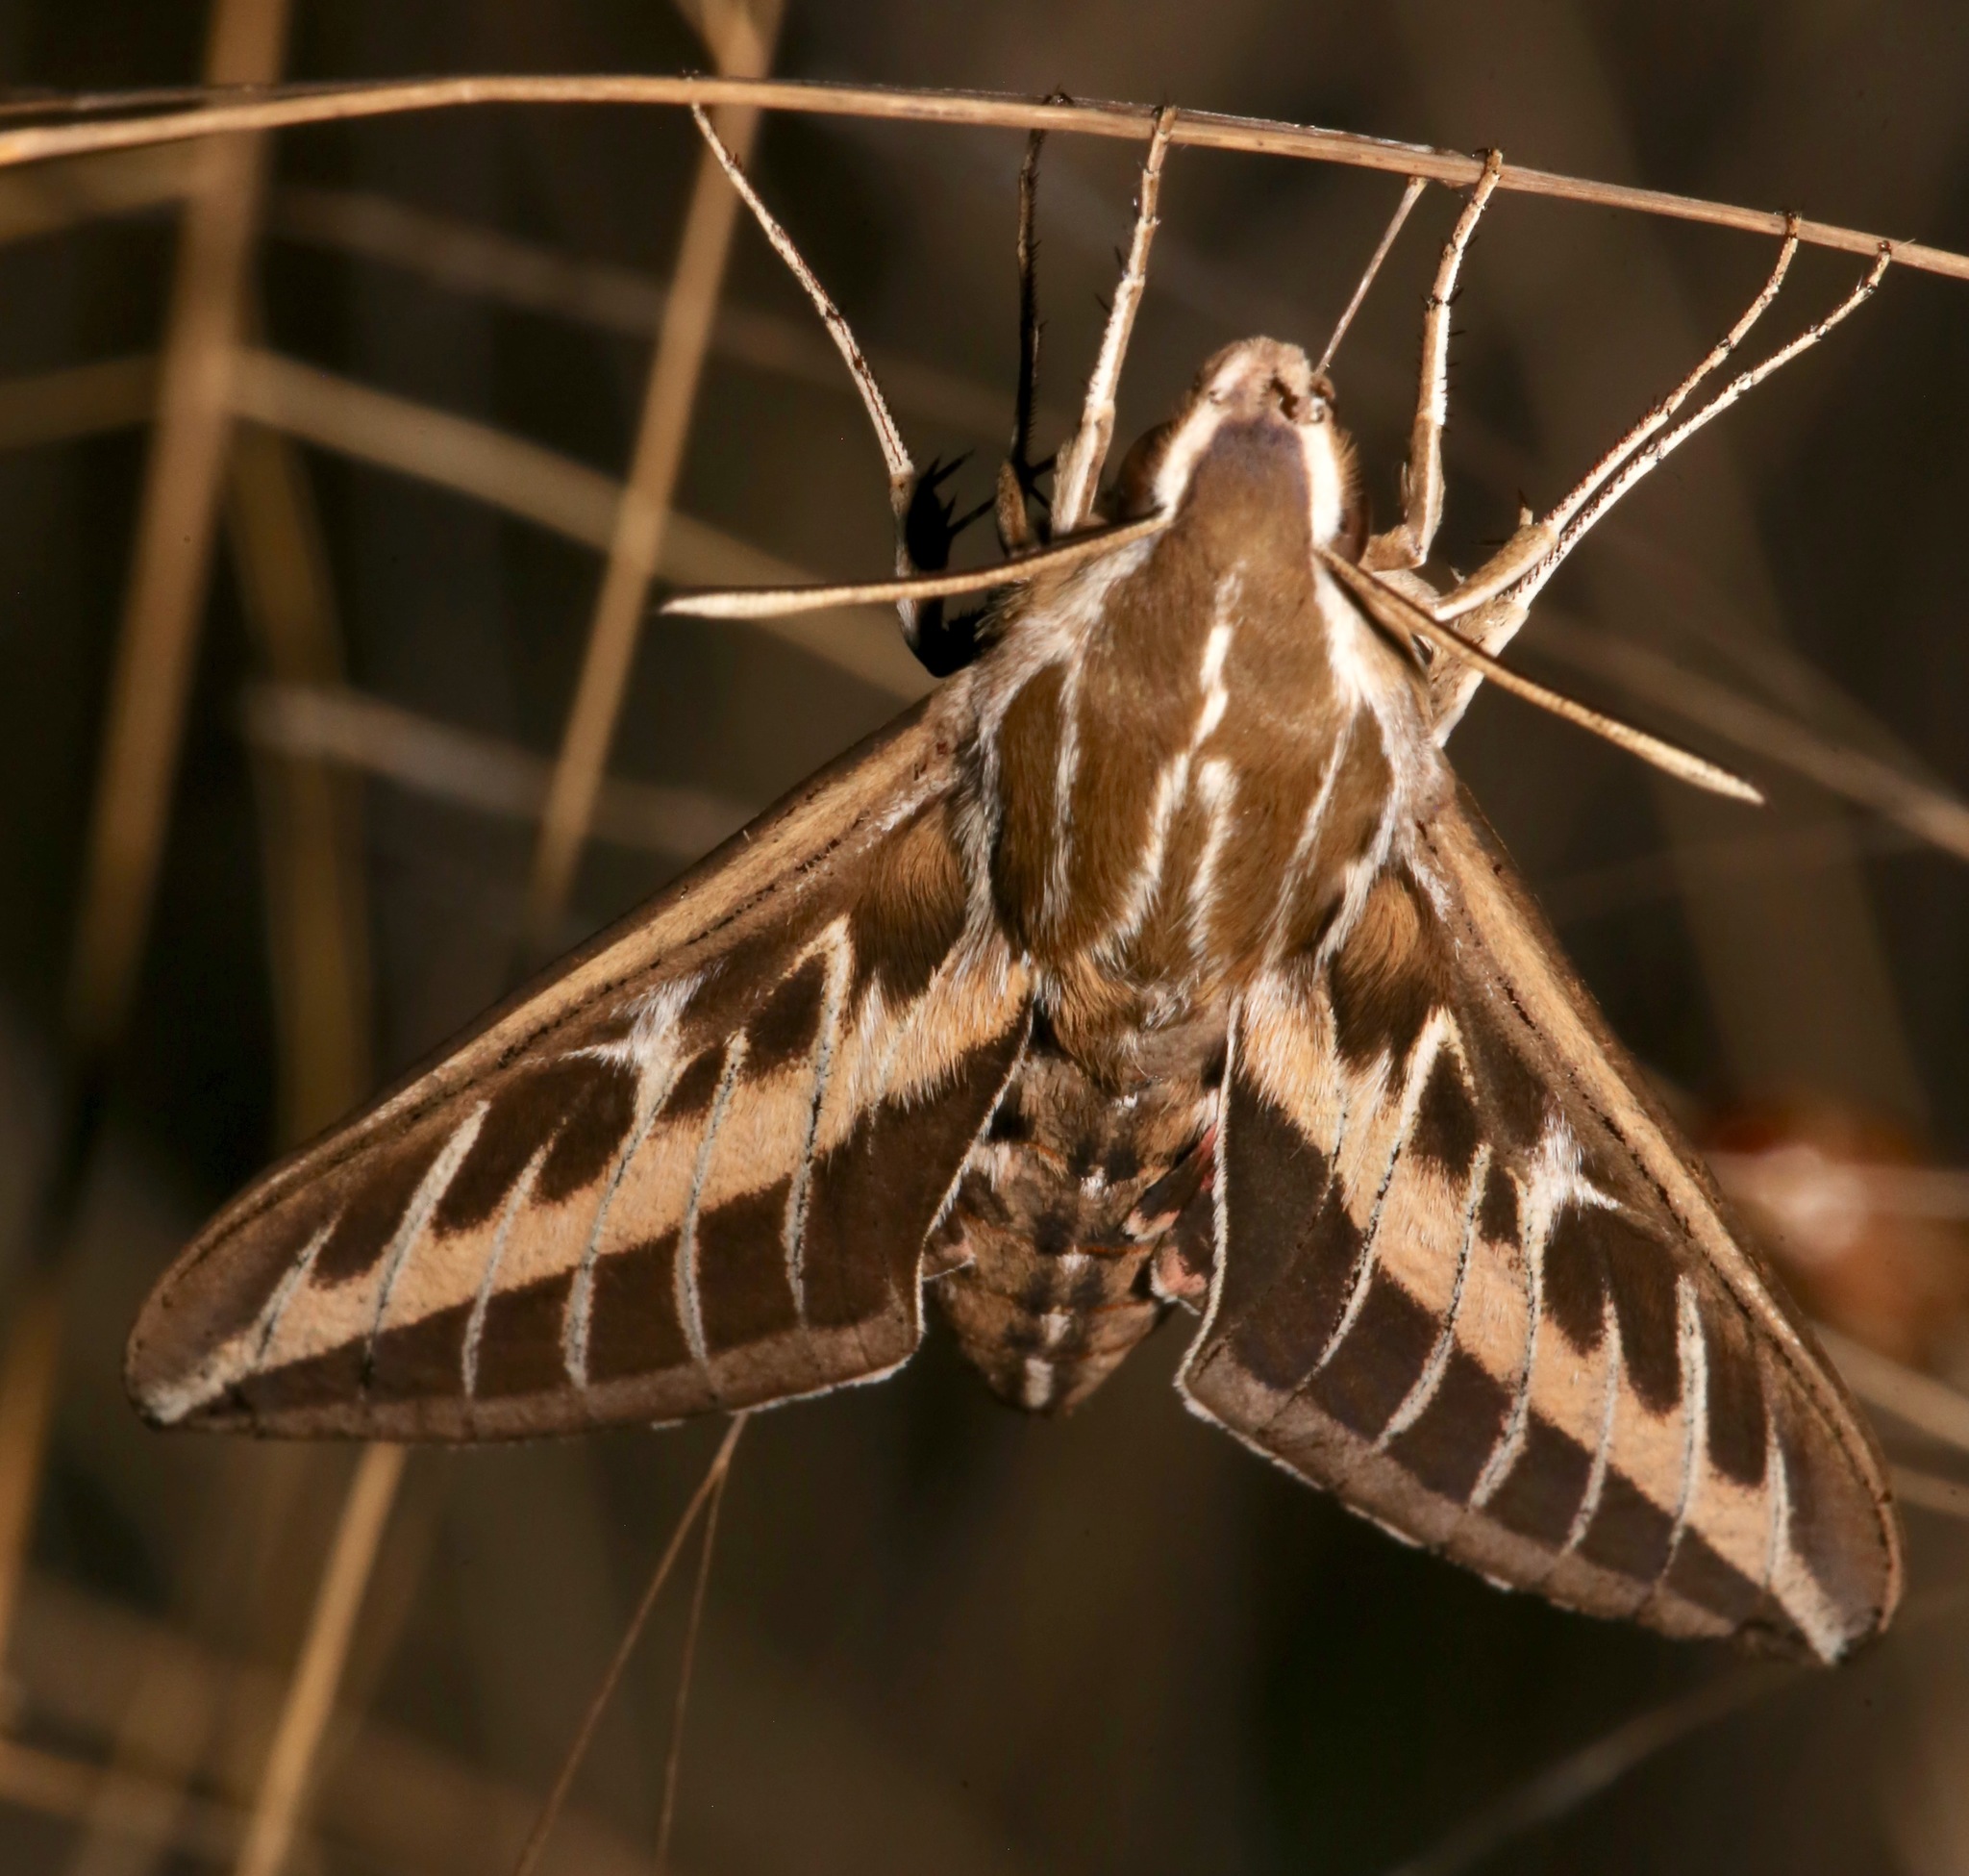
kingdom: Animalia
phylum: Arthropoda
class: Insecta
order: Lepidoptera
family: Sphingidae
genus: Hyles
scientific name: Hyles lineata
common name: White-lined sphinx
